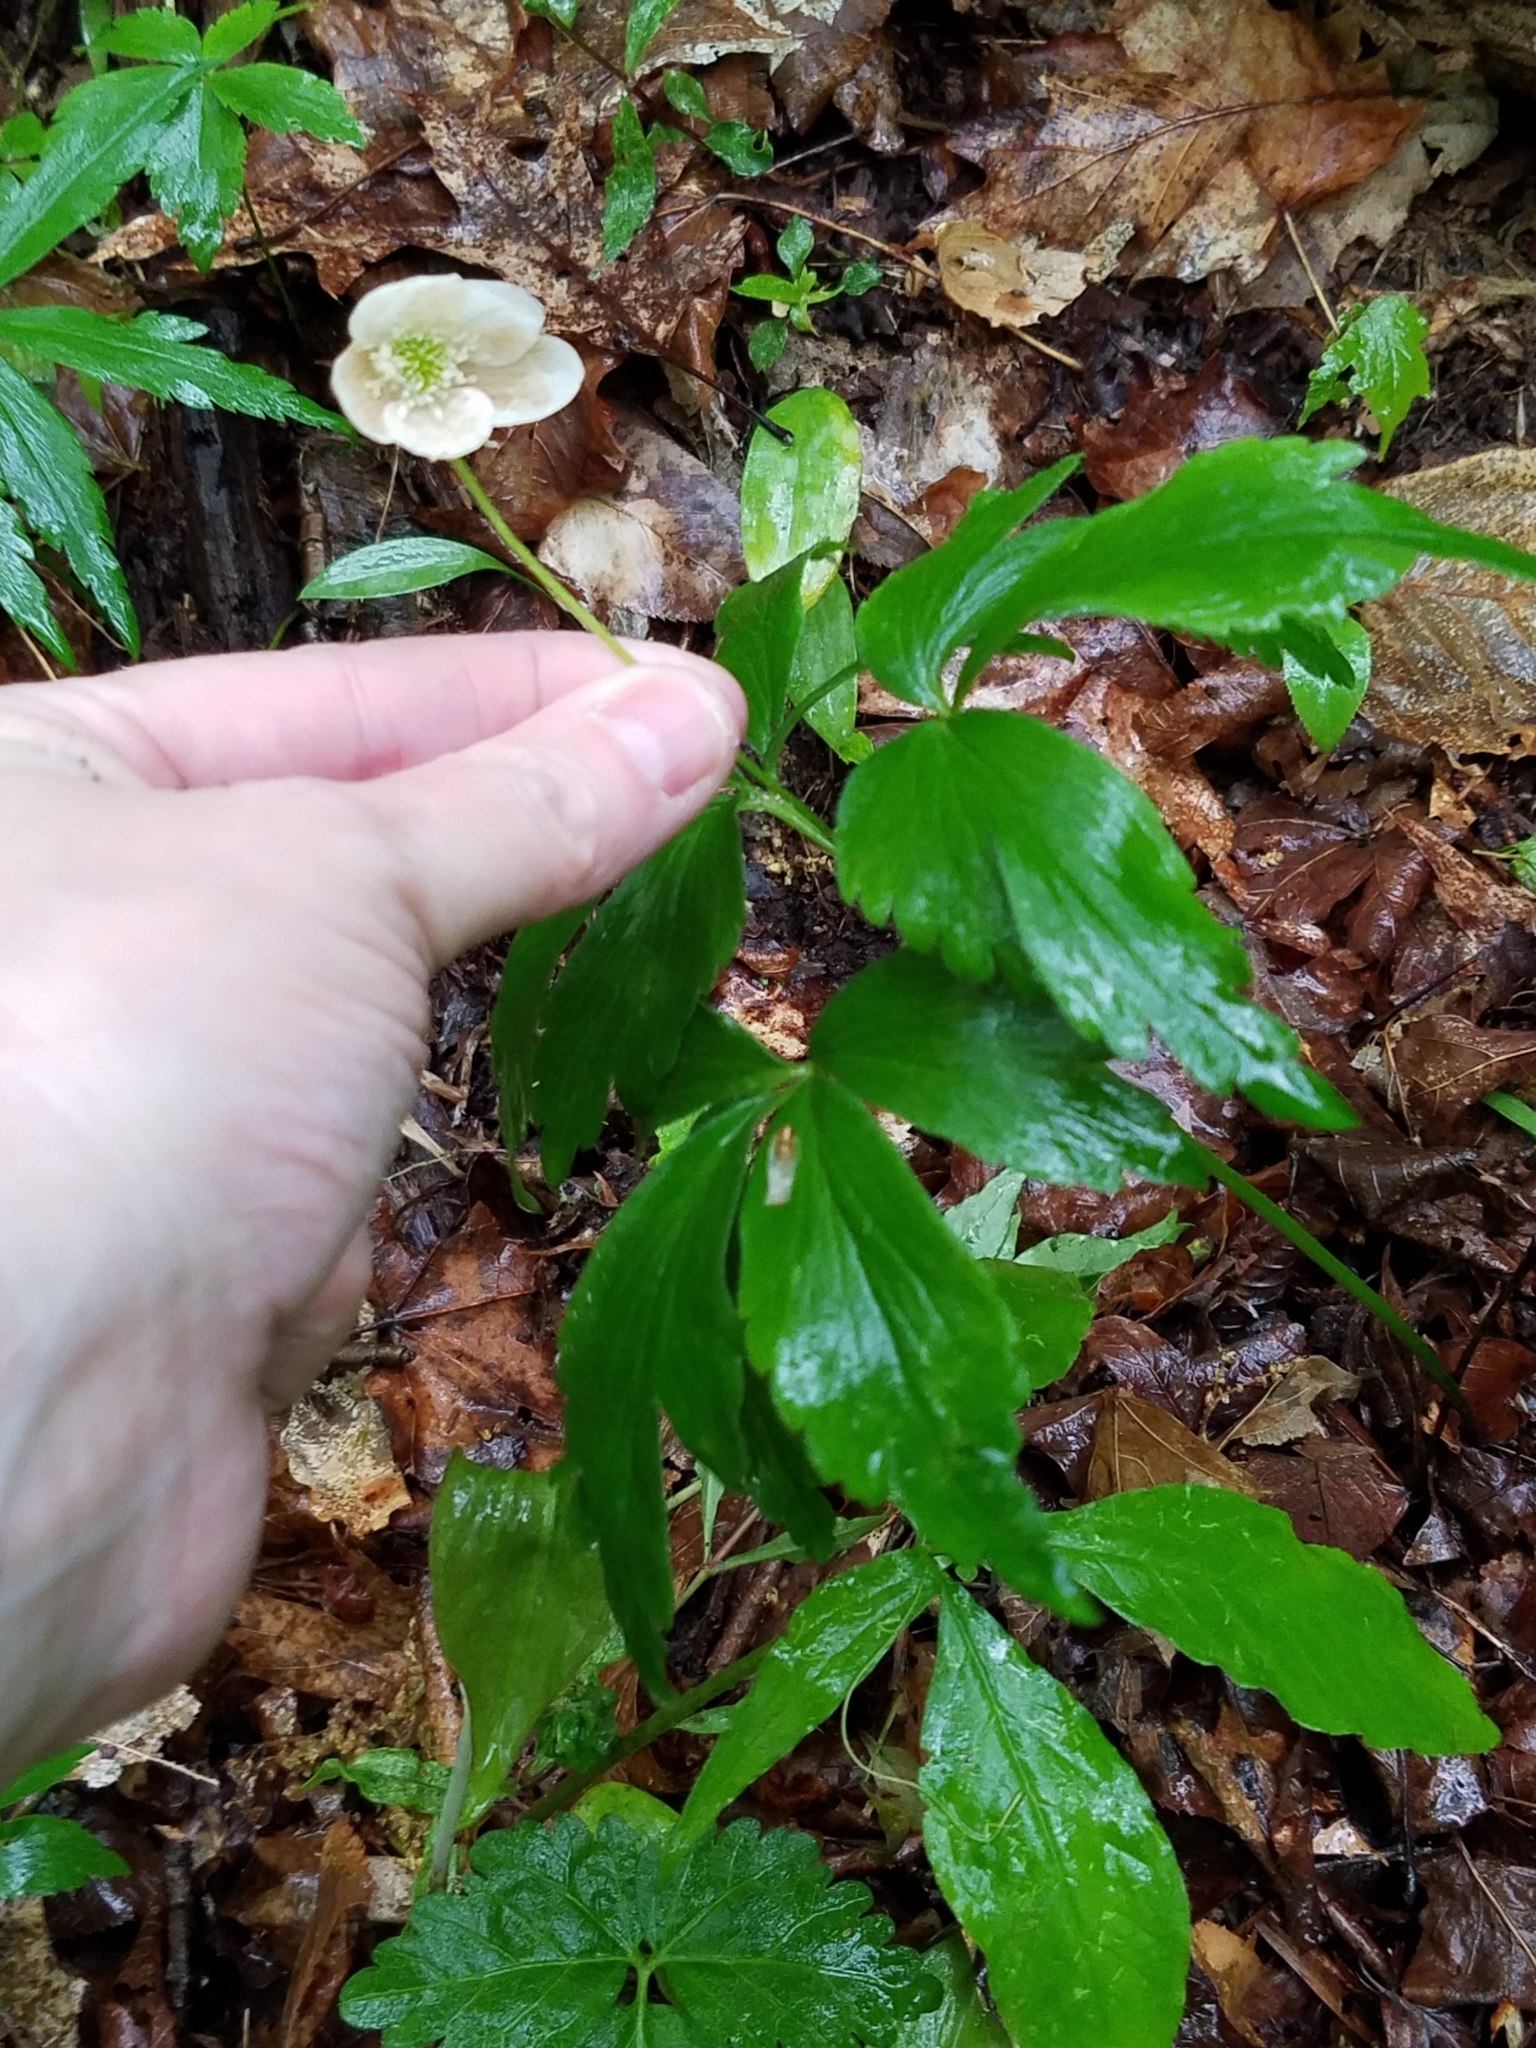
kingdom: Plantae
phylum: Tracheophyta
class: Magnoliopsida
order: Ranunculales
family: Ranunculaceae
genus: Anemone
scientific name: Anemone quinquefolia
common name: Wood anemone
